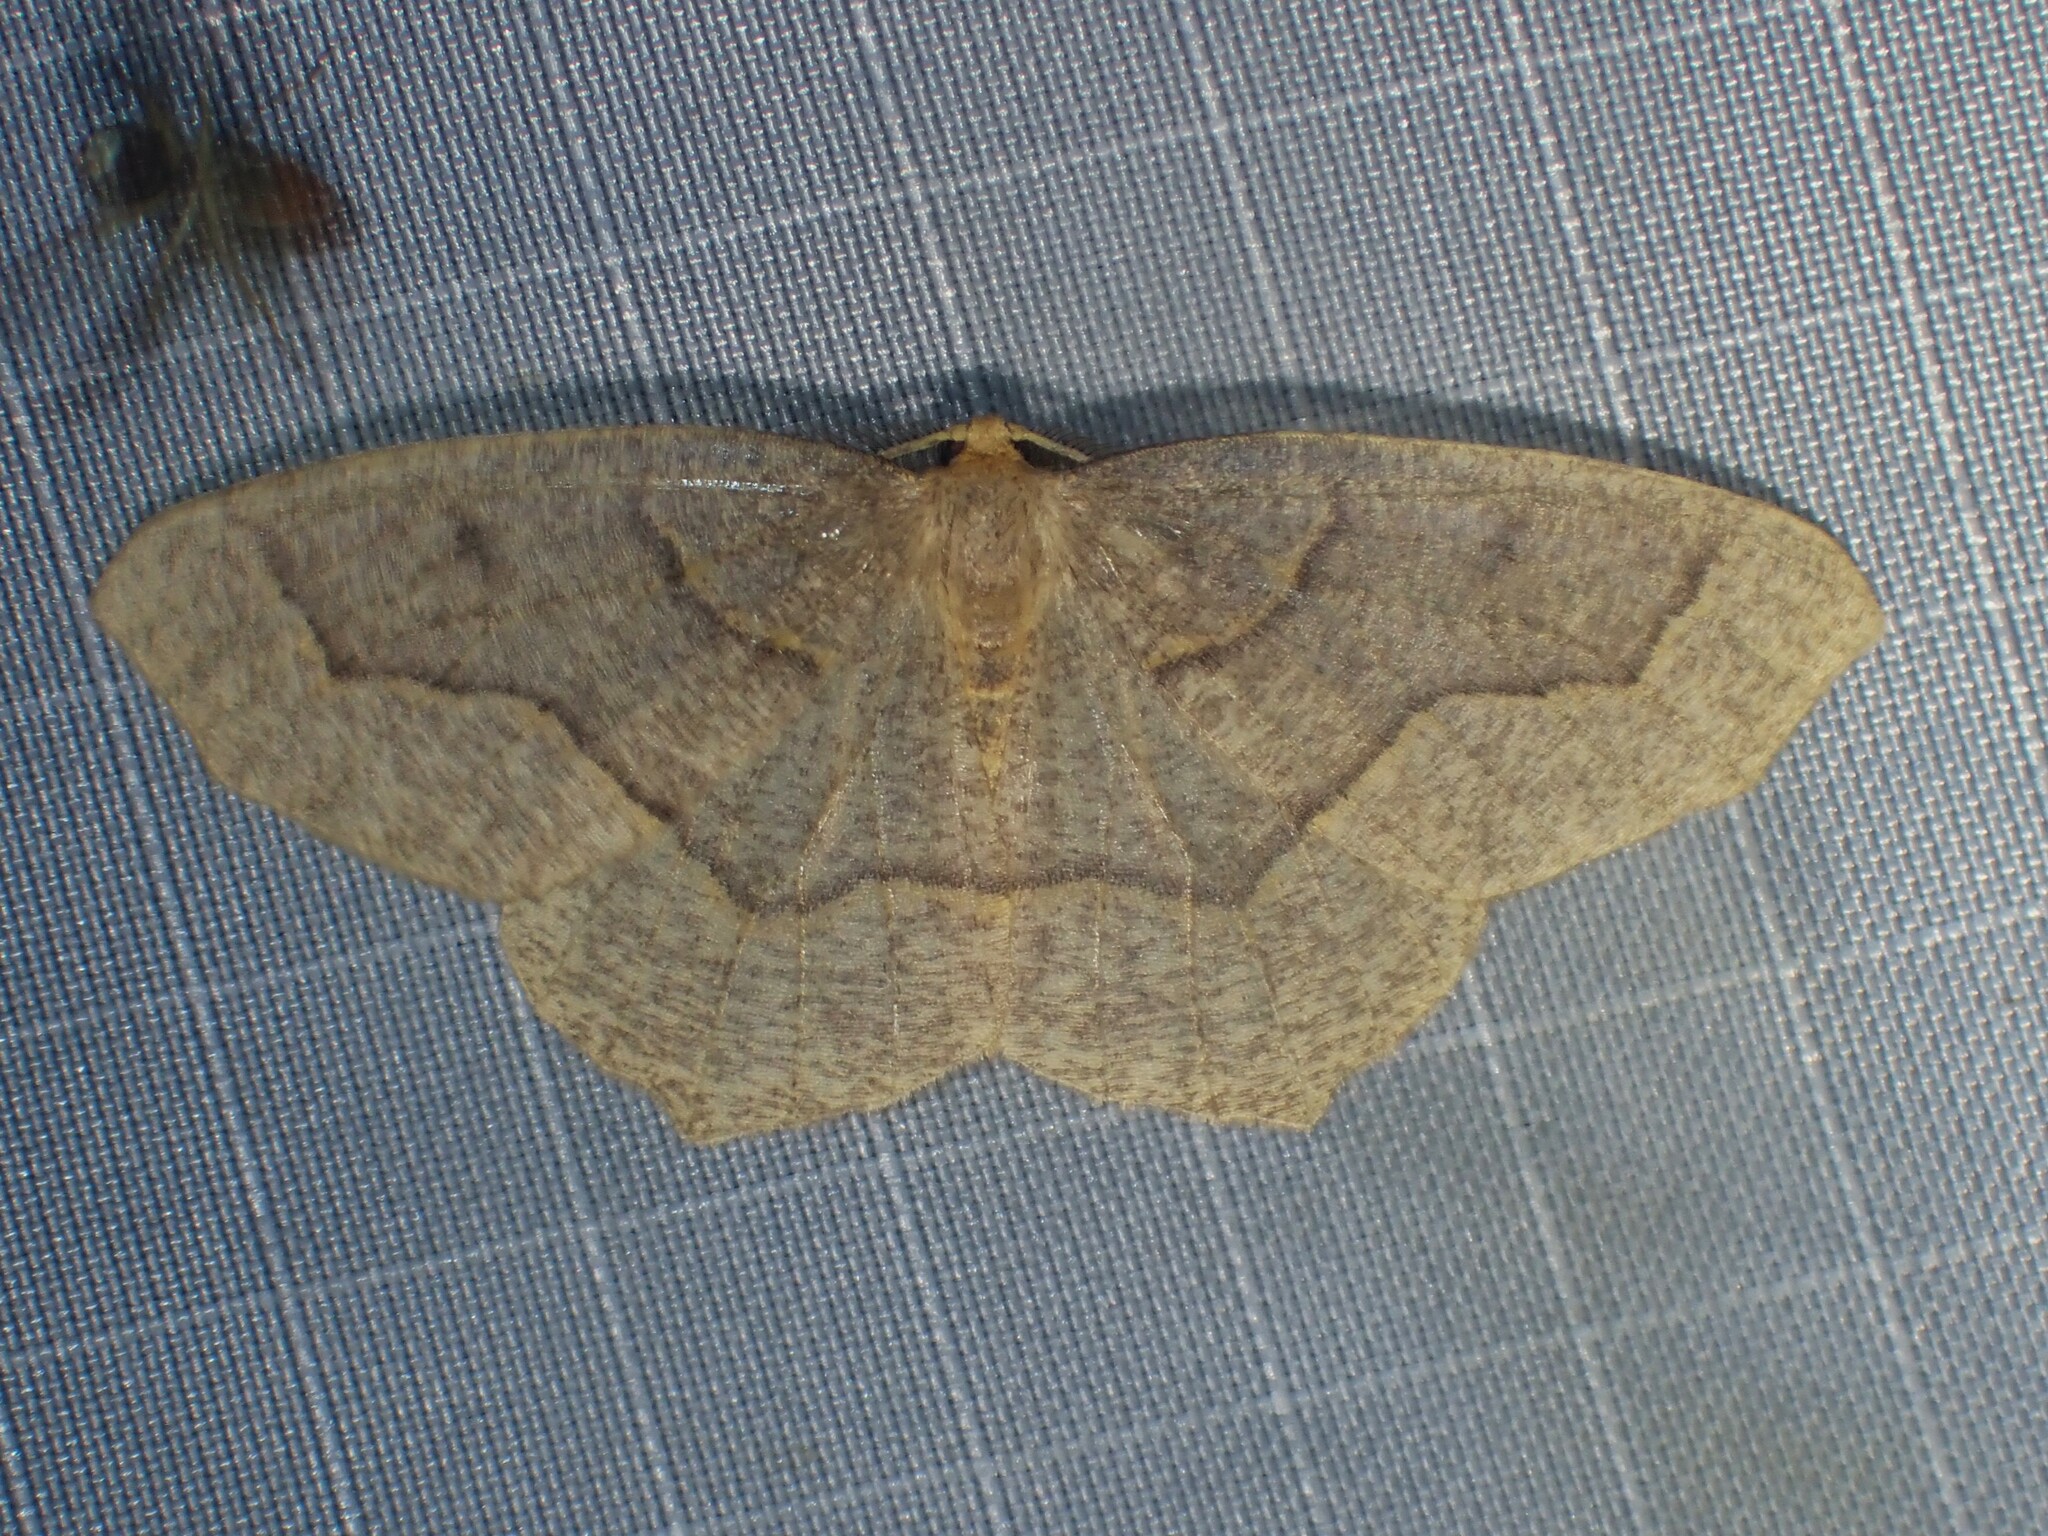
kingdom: Animalia
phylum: Arthropoda
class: Insecta
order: Lepidoptera
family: Geometridae
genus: Lambdina
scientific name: Lambdina fiscellaria
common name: Hemlock looper
